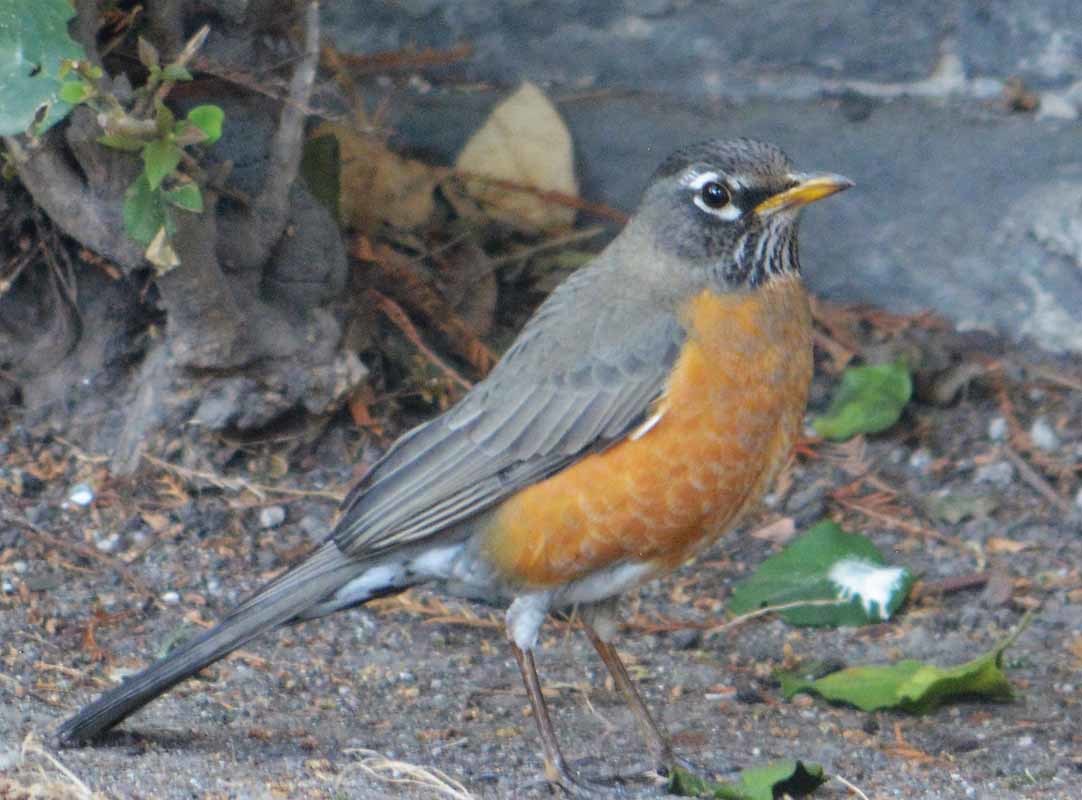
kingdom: Animalia
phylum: Chordata
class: Aves
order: Passeriformes
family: Turdidae
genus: Turdus
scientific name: Turdus migratorius
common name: American robin
